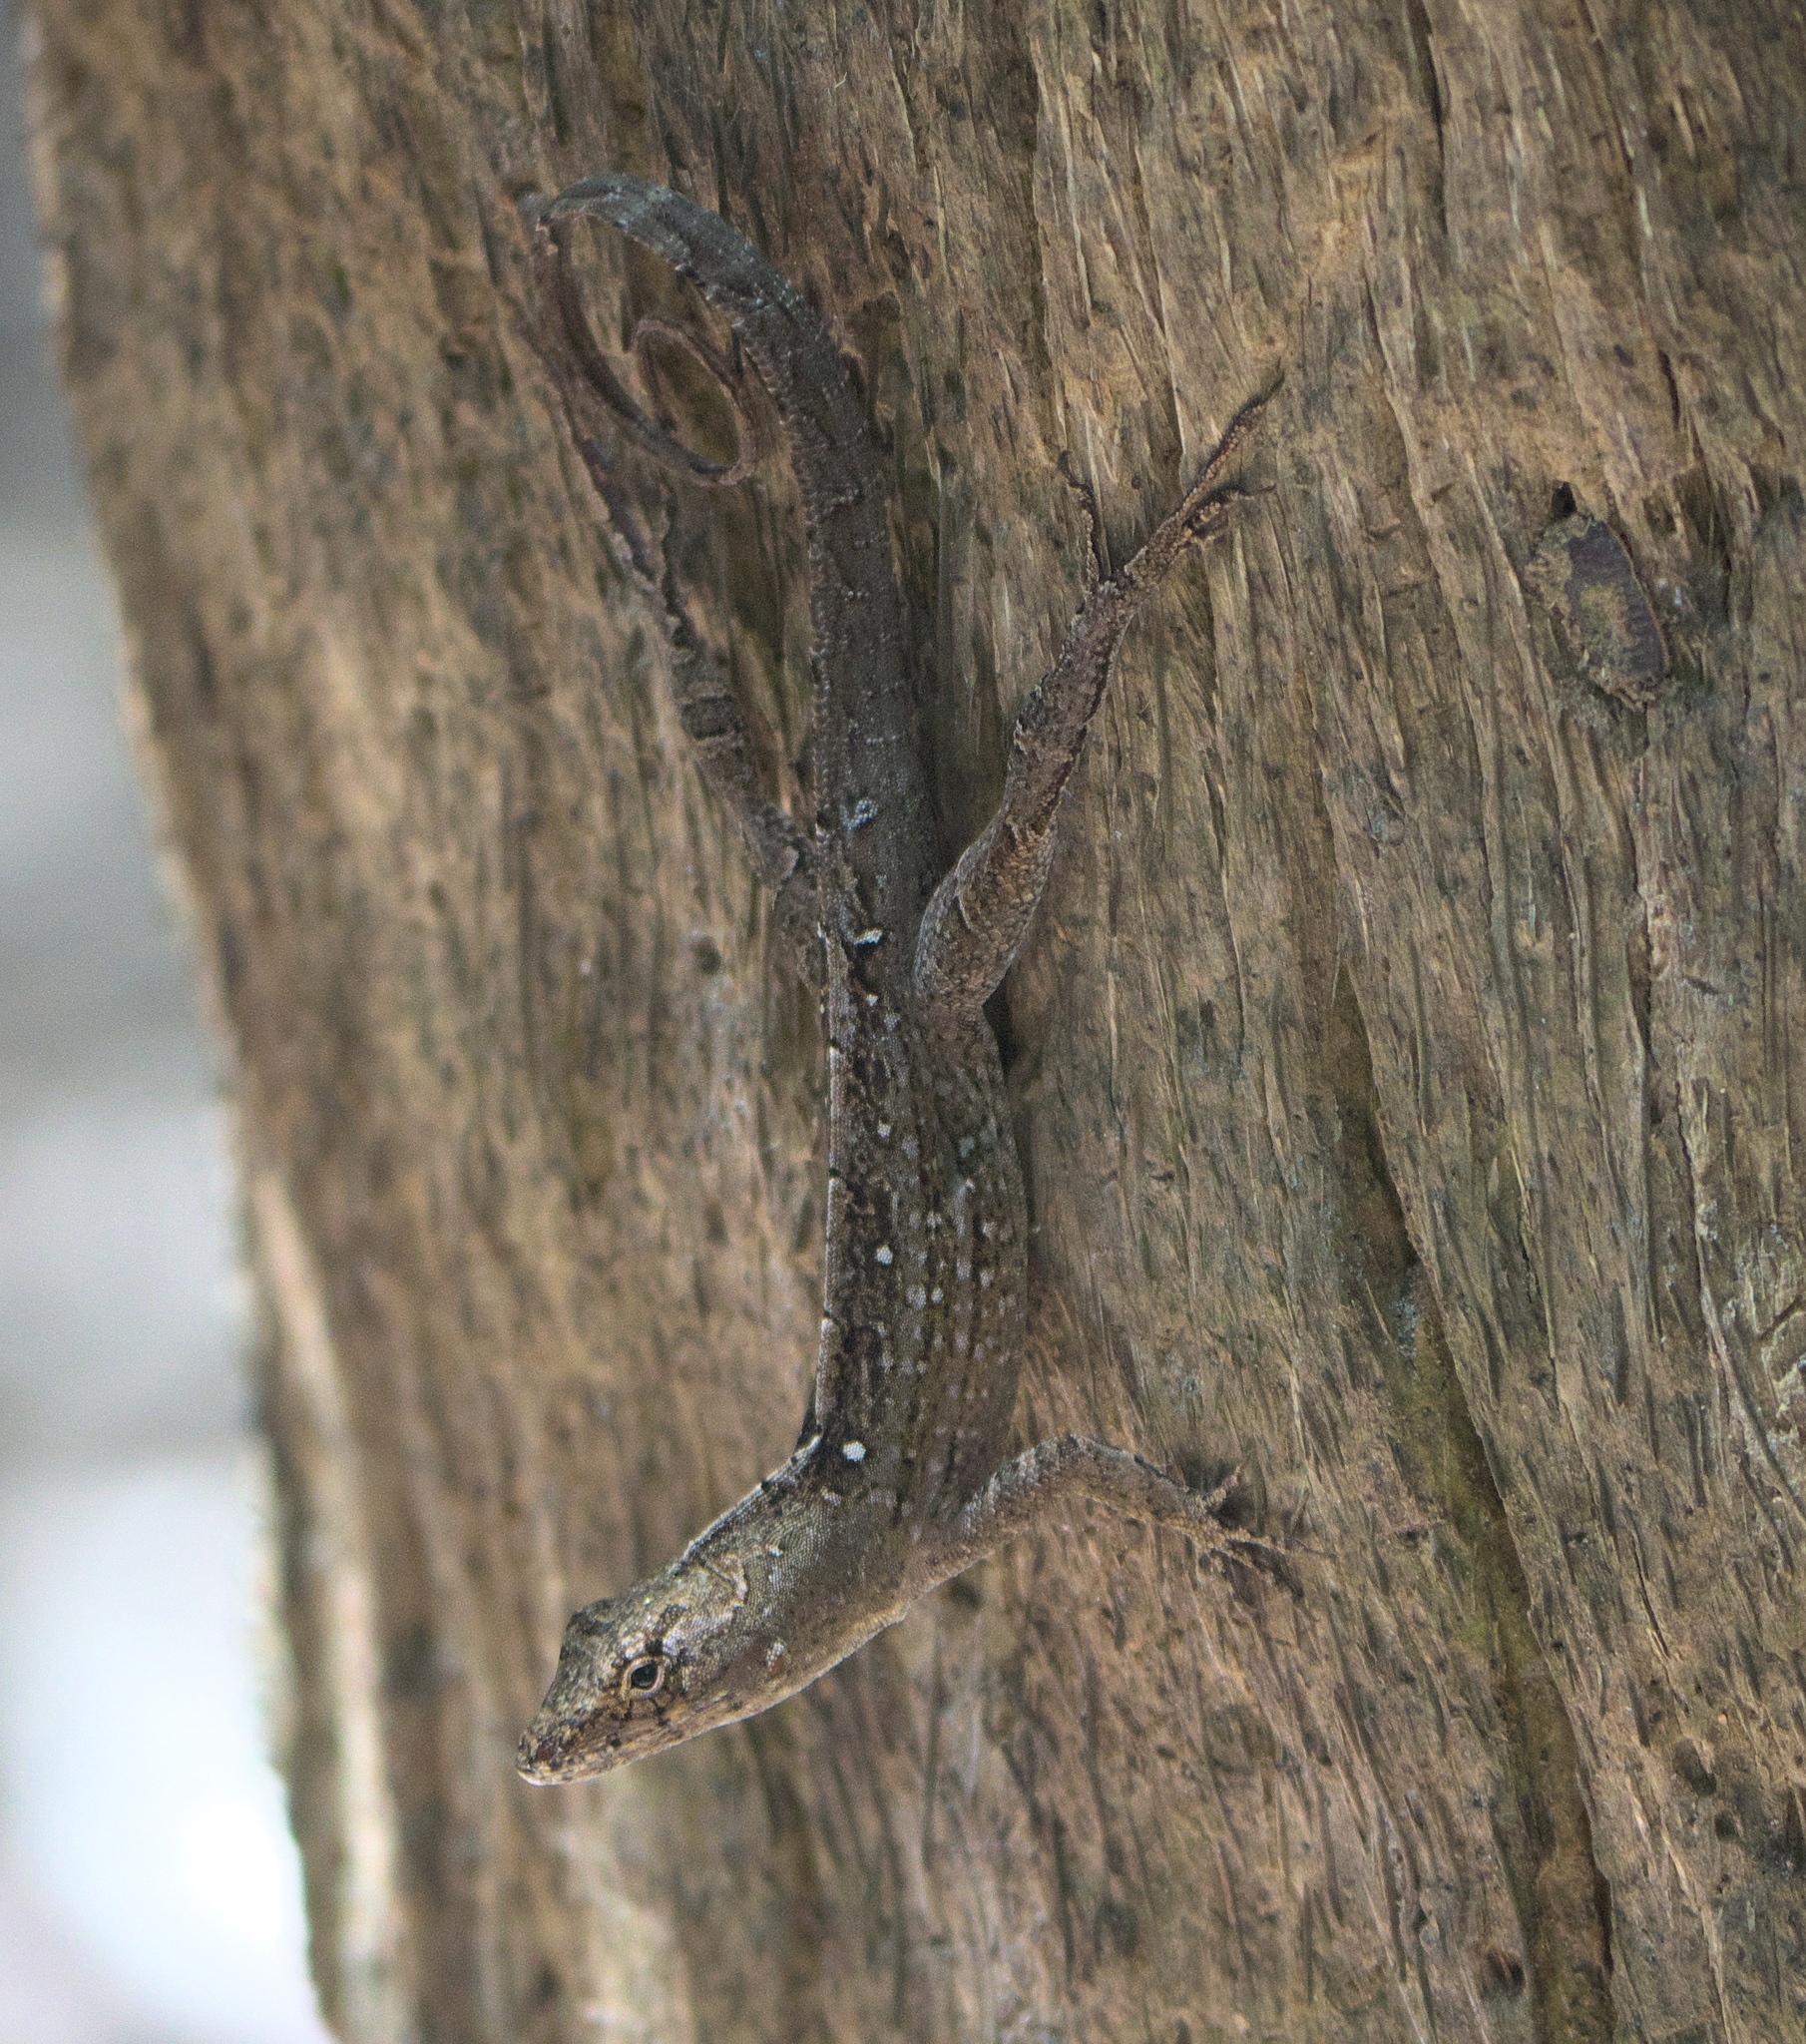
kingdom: Animalia
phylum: Chordata
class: Squamata
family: Dactyloidae
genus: Anolis
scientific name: Anolis sagrei
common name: Brown anole
